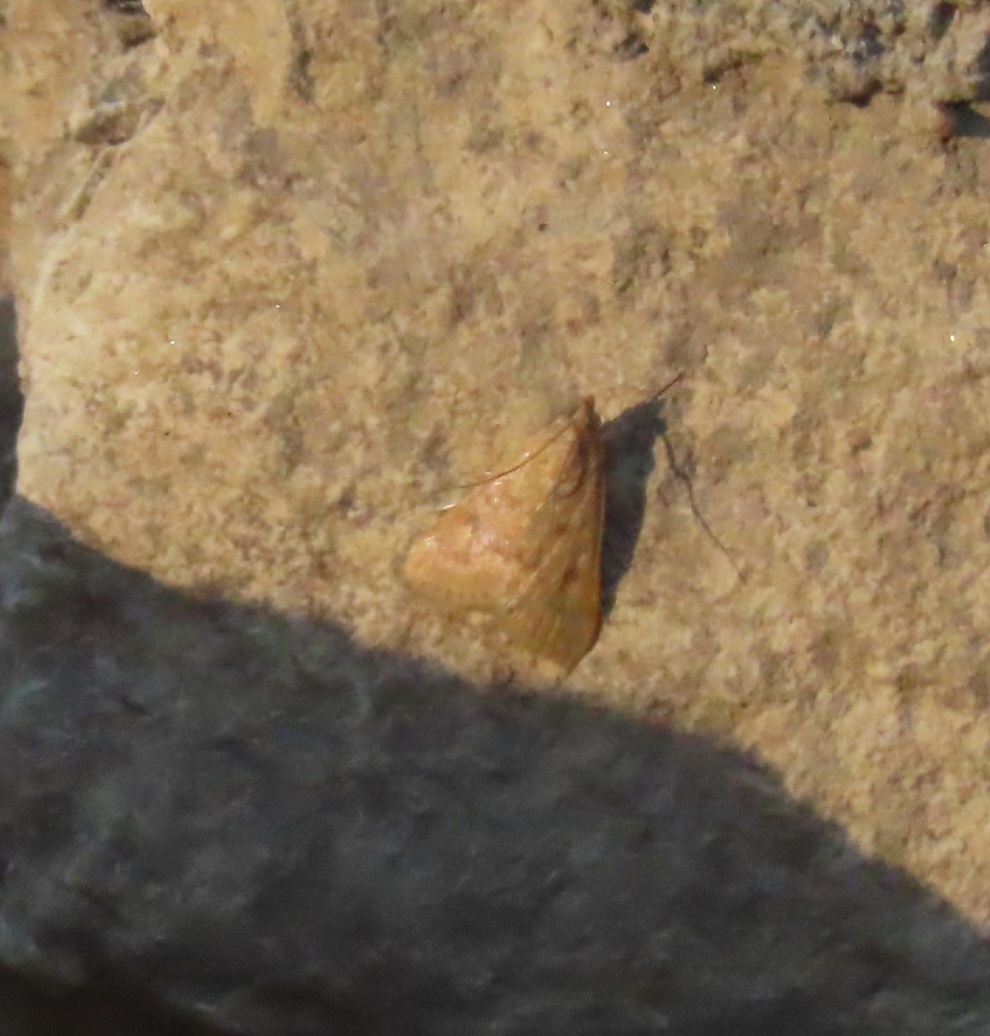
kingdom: Animalia
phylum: Arthropoda
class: Insecta
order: Lepidoptera
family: Crambidae
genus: Achyra
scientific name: Achyra rantalis
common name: Garden webworm
